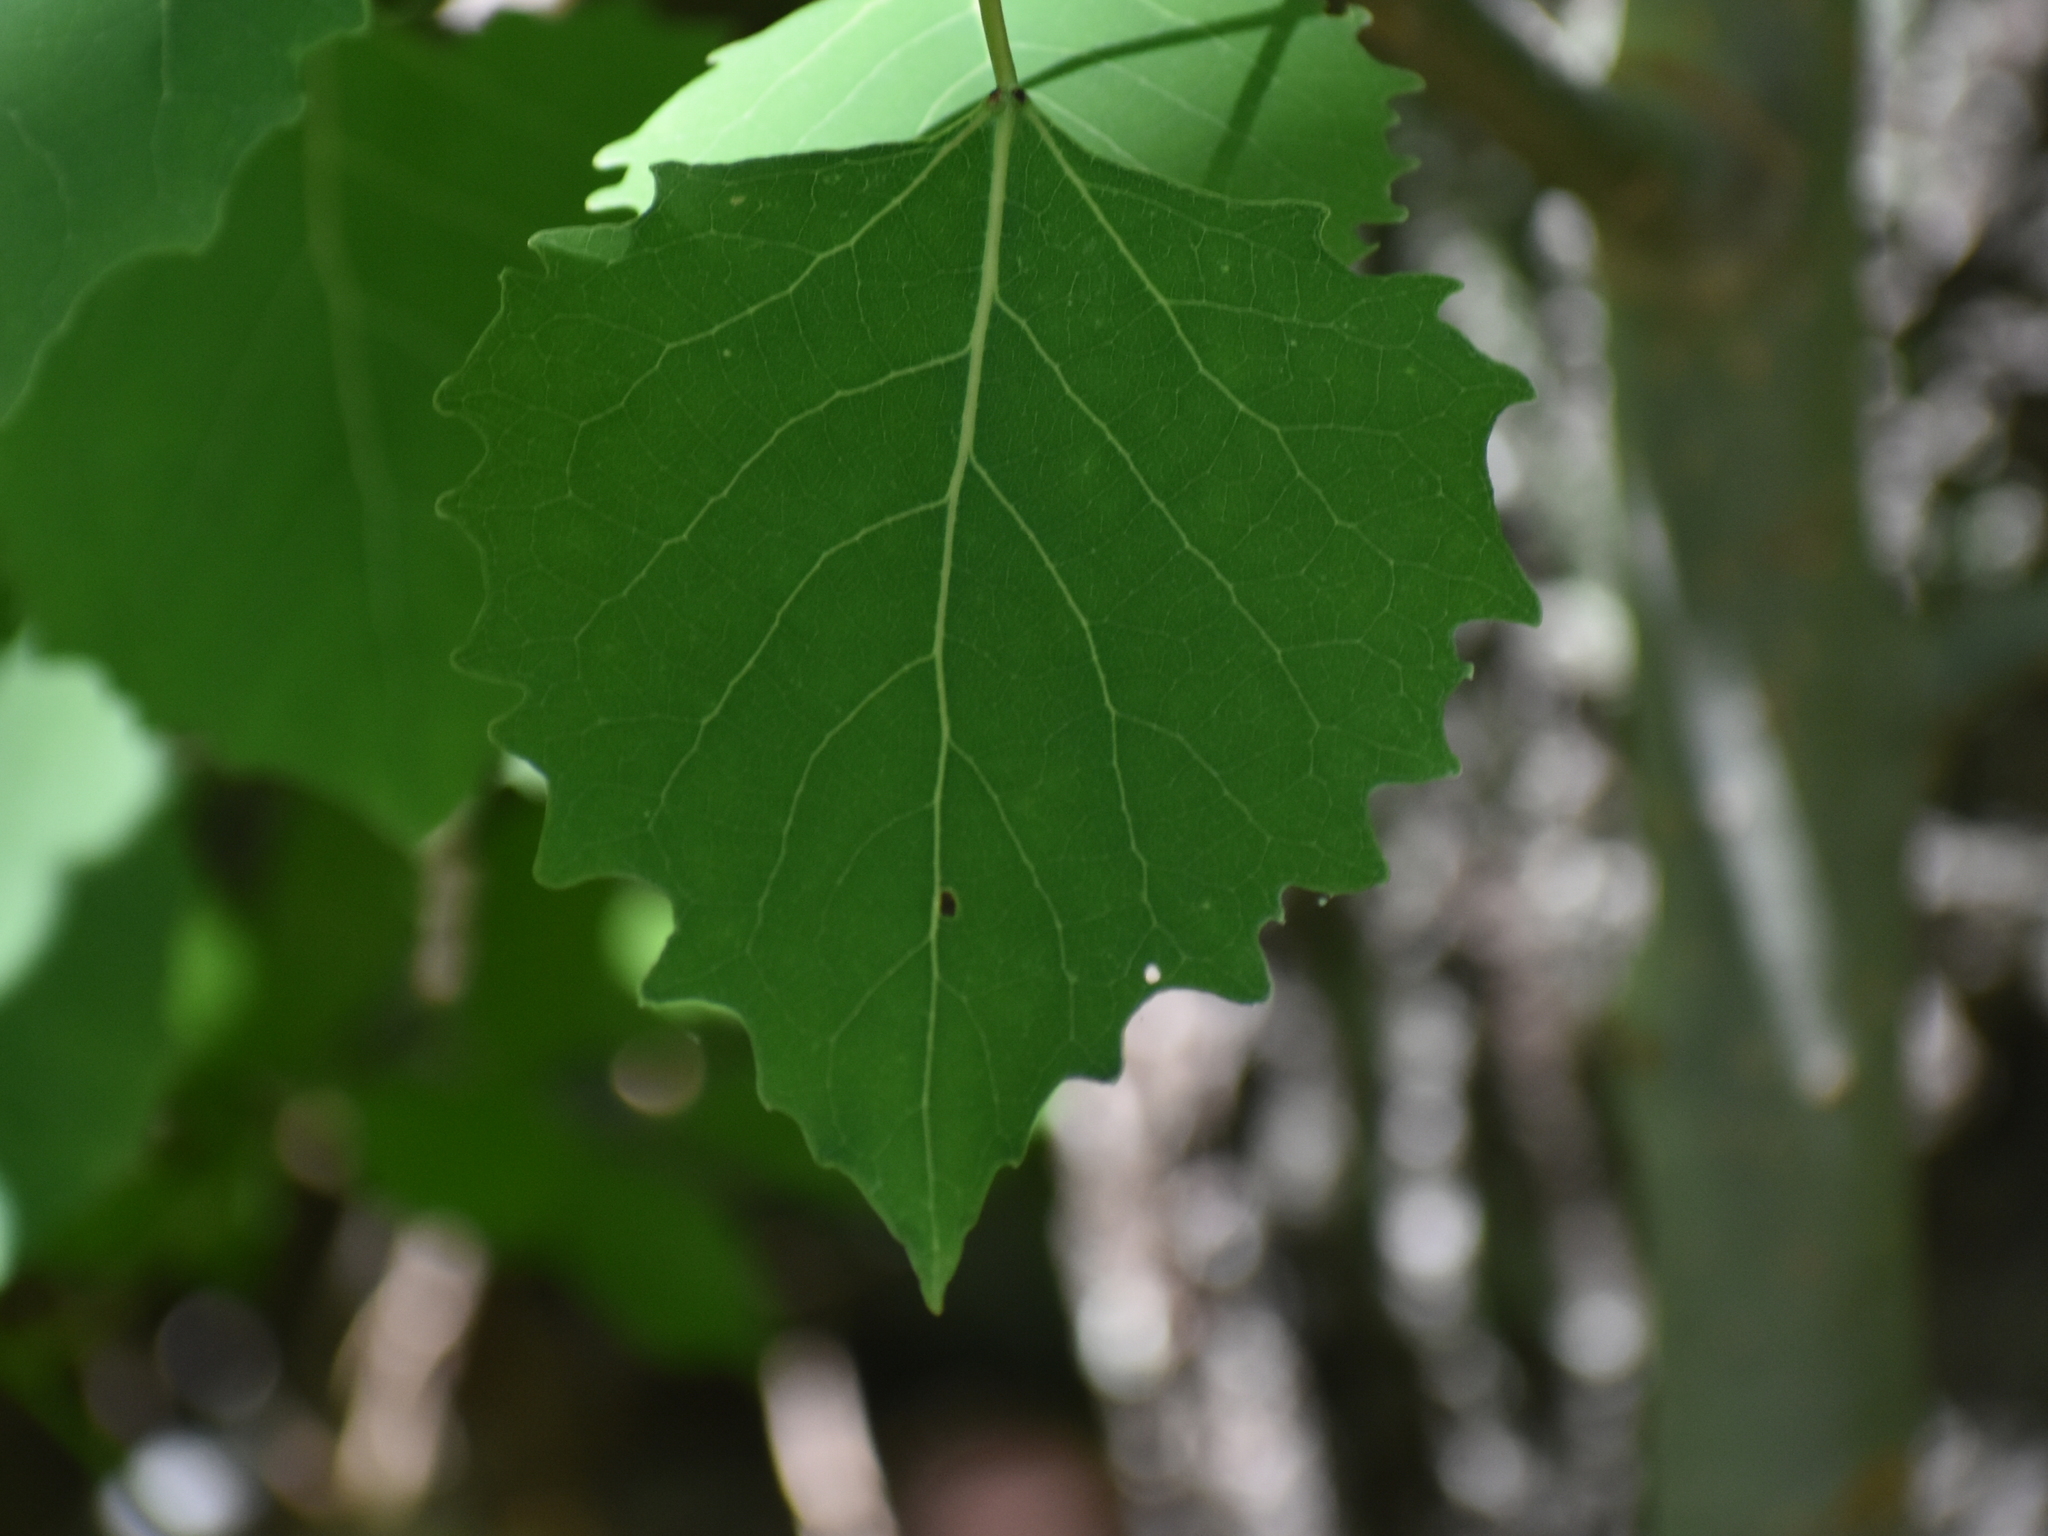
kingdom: Plantae
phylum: Tracheophyta
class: Magnoliopsida
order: Malpighiales
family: Salicaceae
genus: Populus
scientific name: Populus grandidentata
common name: Bigtooth aspen
